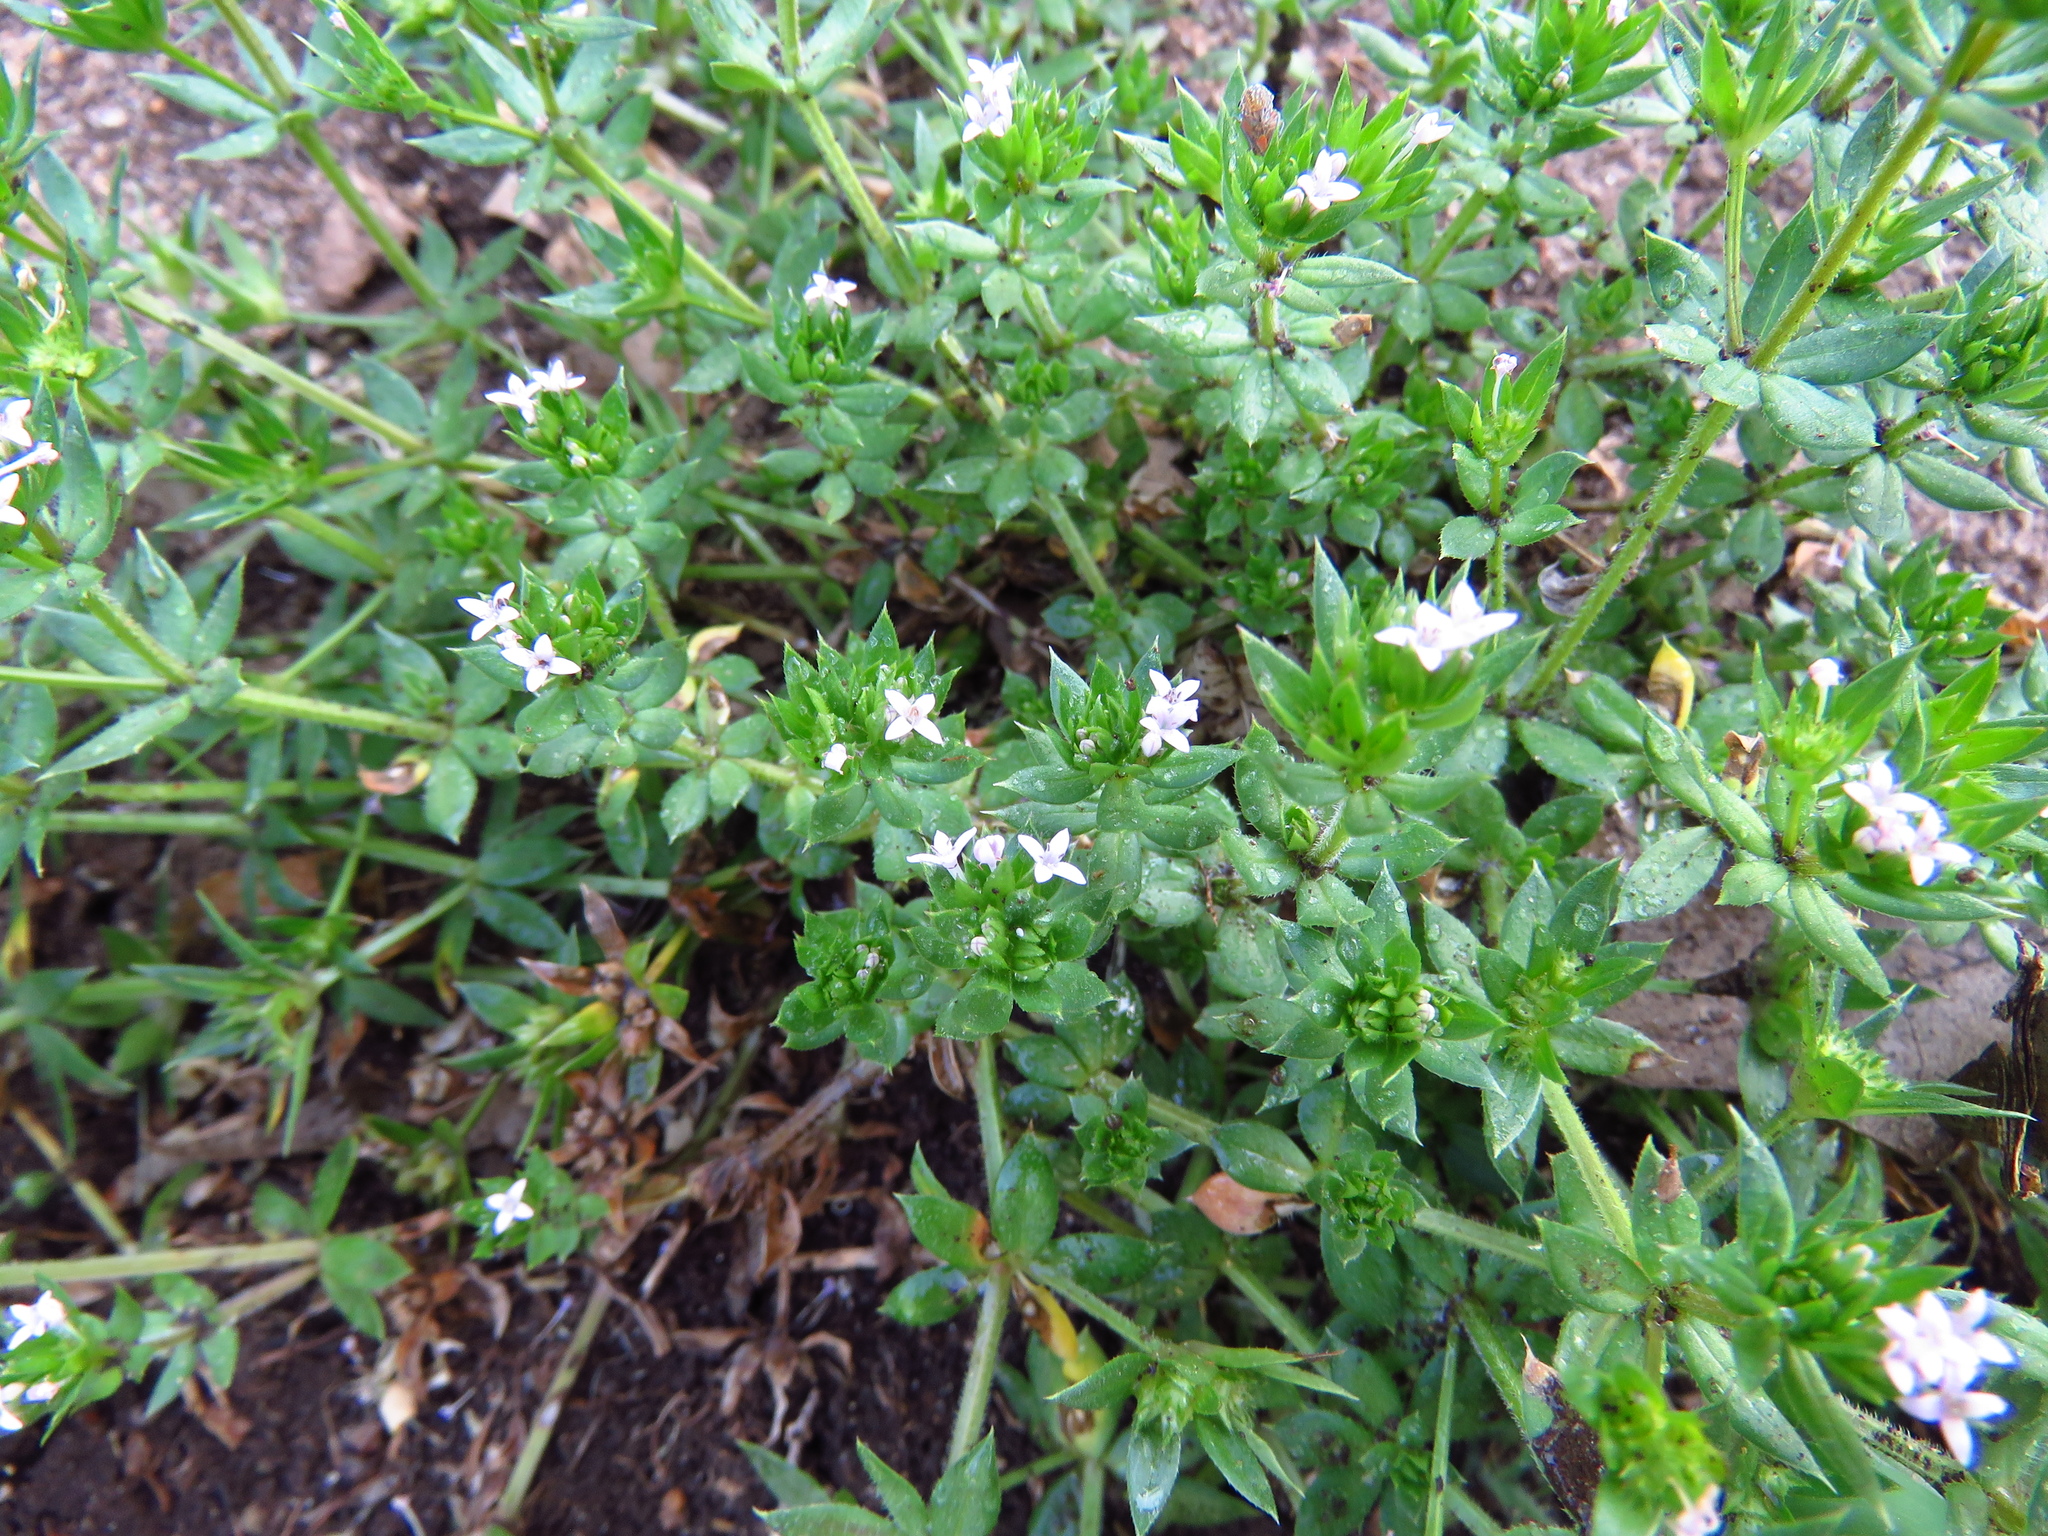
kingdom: Plantae
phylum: Tracheophyta
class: Magnoliopsida
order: Gentianales
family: Rubiaceae
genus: Sherardia
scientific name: Sherardia arvensis
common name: Field madder
